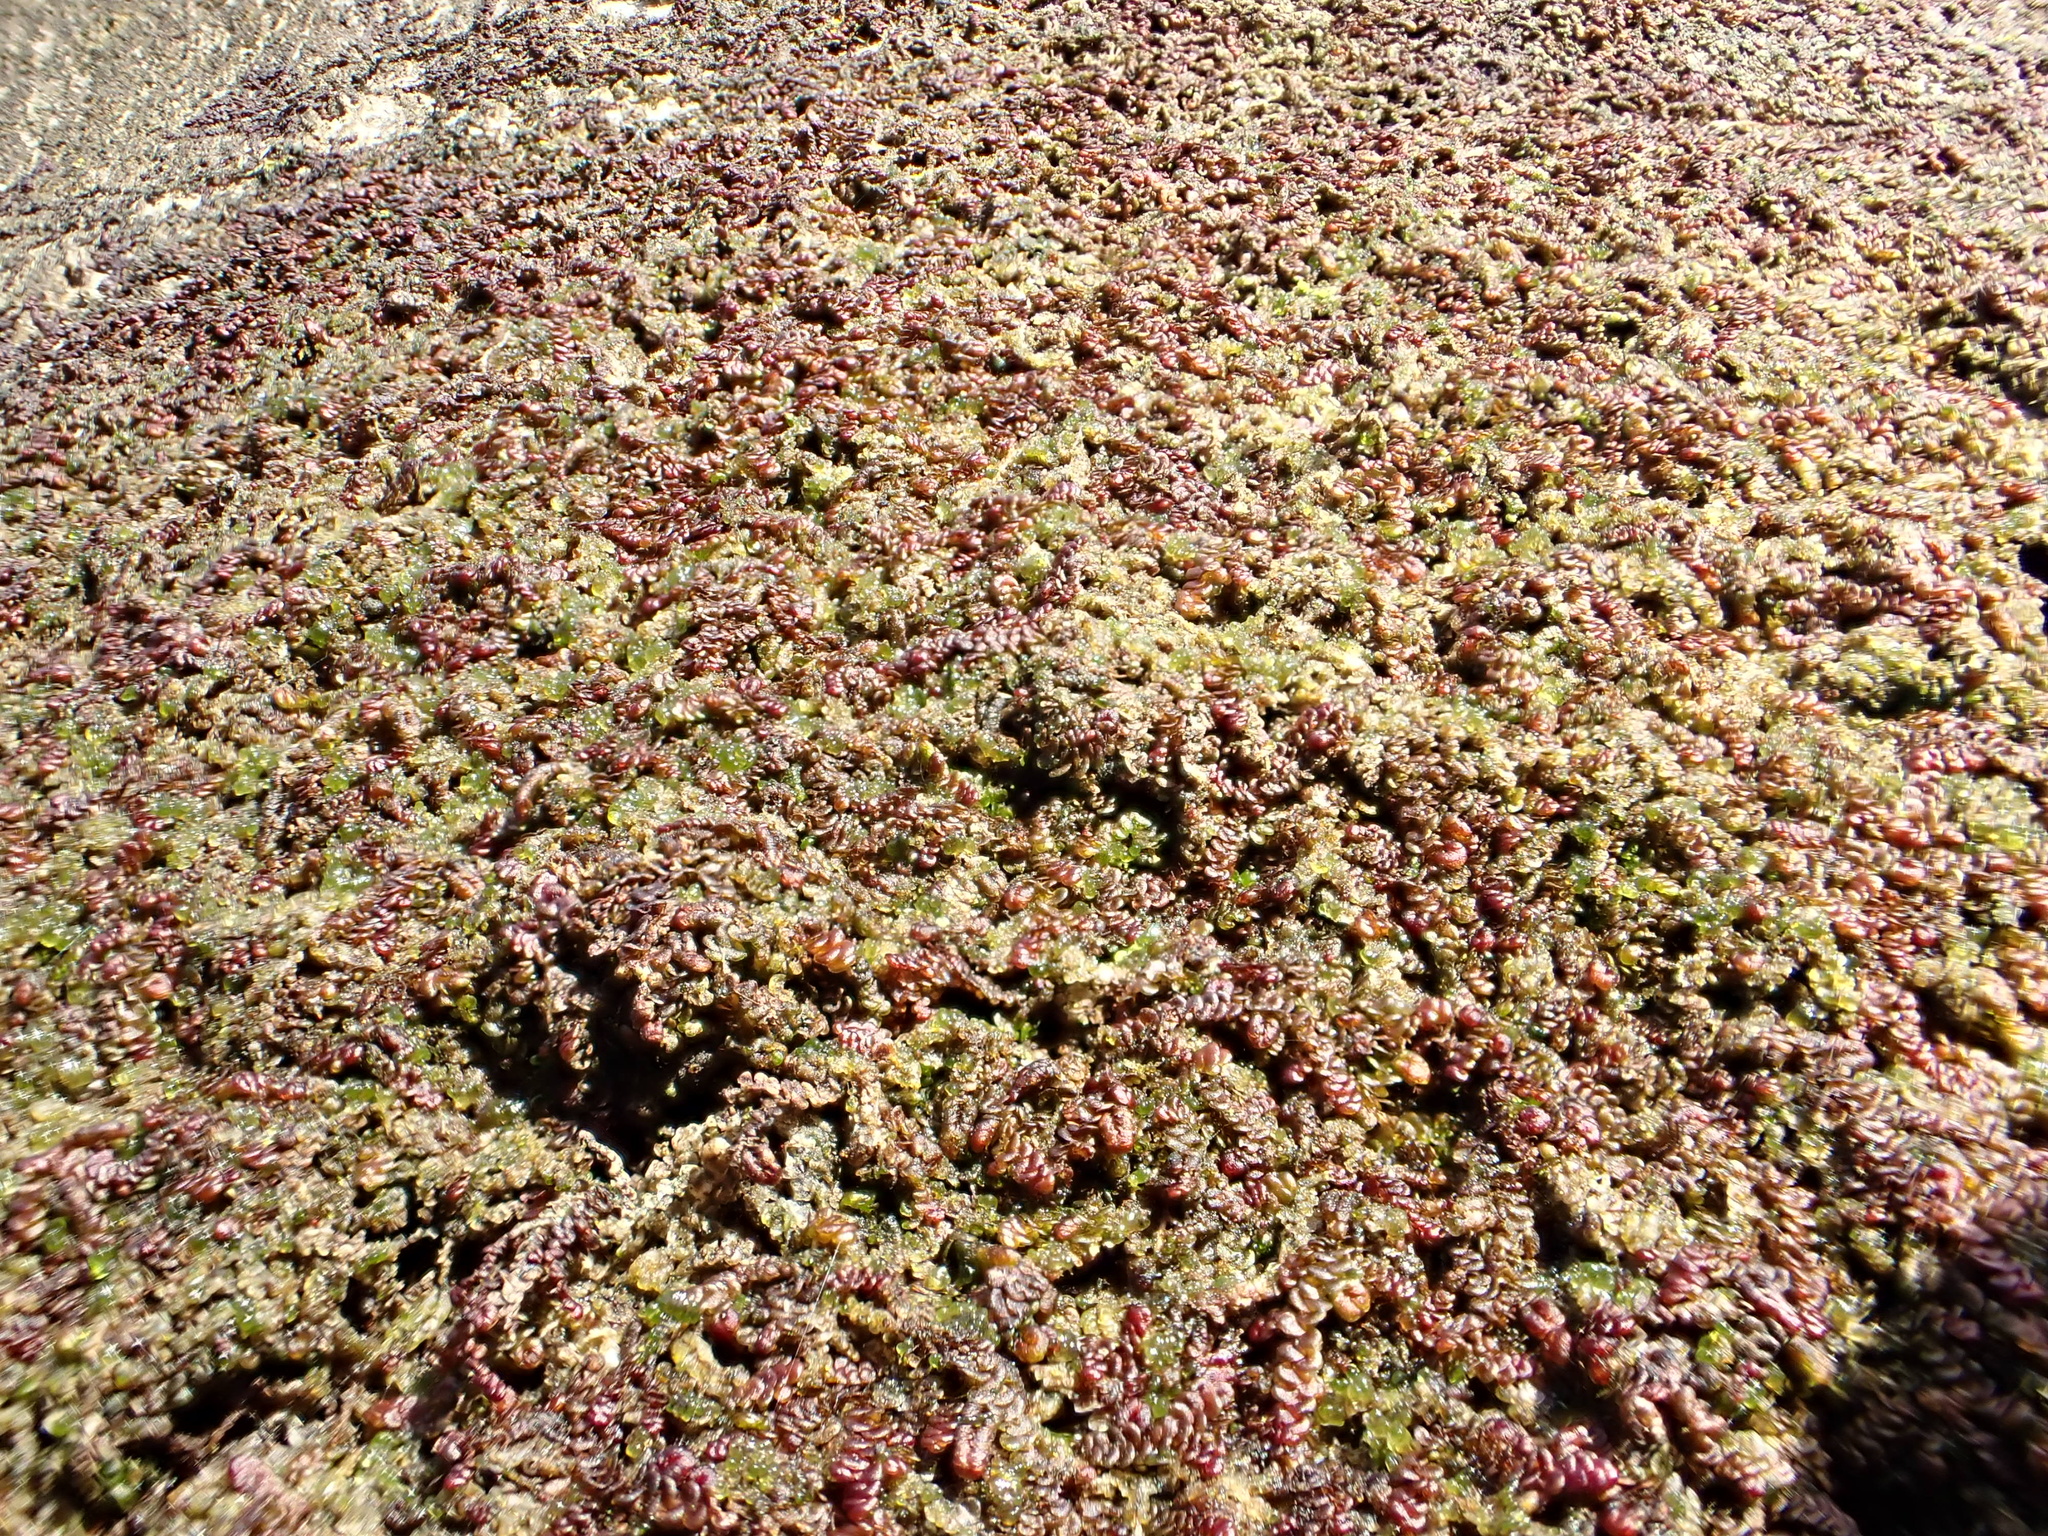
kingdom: Plantae
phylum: Marchantiophyta
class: Jungermanniopsida
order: Porellales
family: Frullaniaceae
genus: Frullania
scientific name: Frullania dilatata
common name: Dilated scalewort
